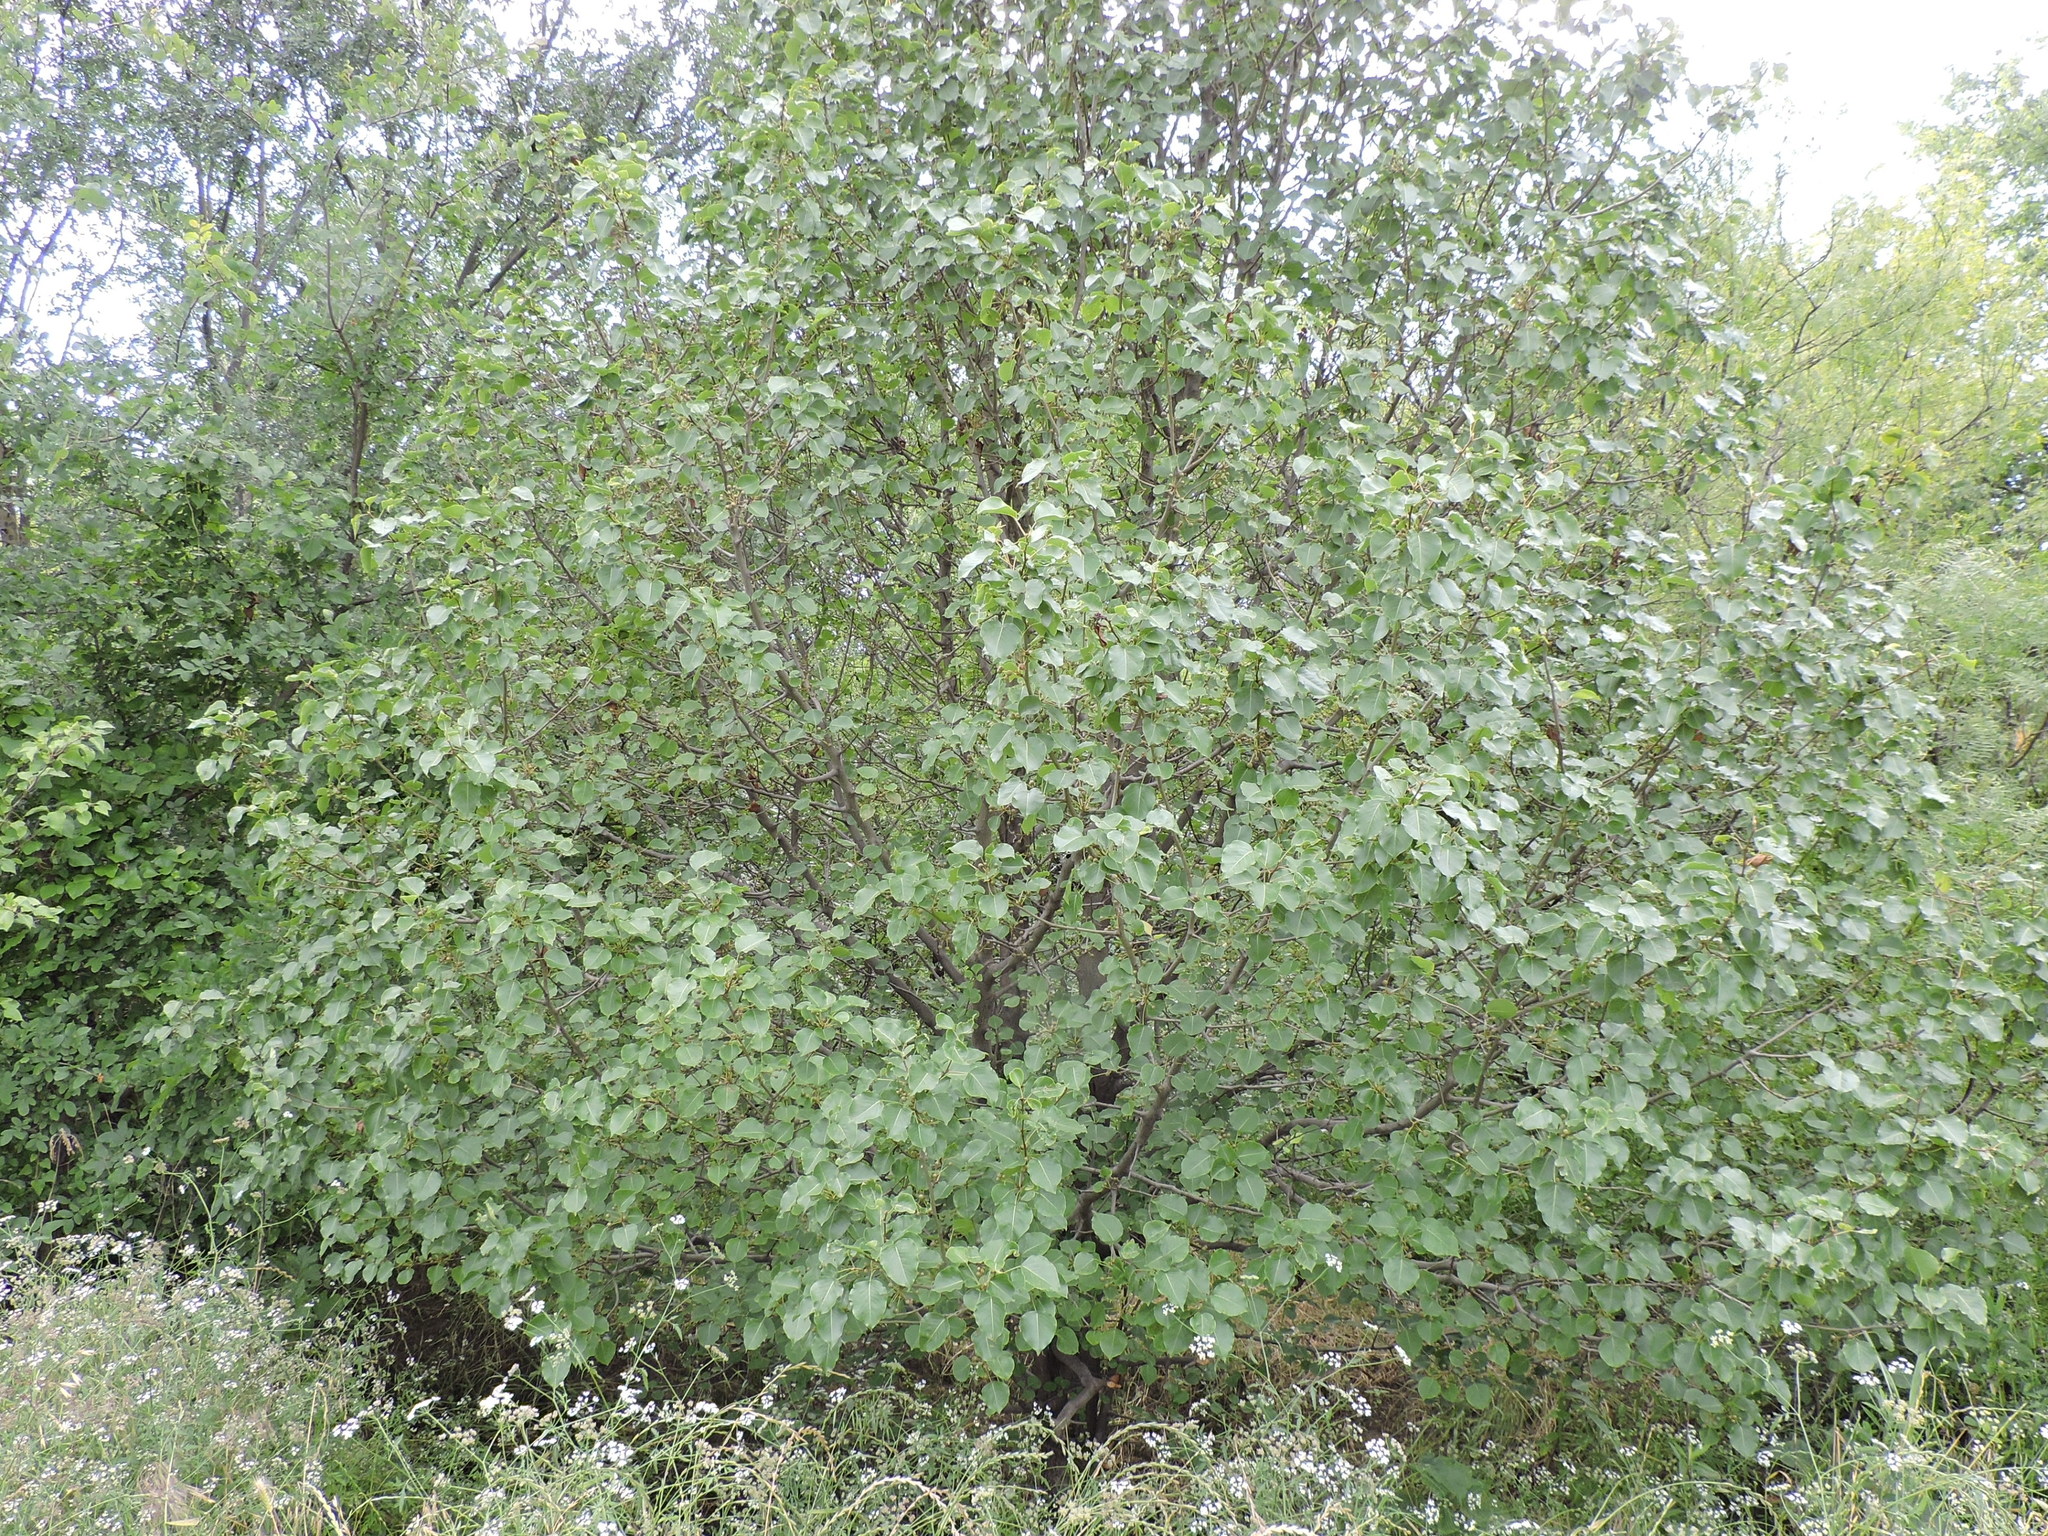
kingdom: Plantae
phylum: Tracheophyta
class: Magnoliopsida
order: Rosales
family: Rosaceae
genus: Pyrus
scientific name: Pyrus calleryana
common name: Callery pear
